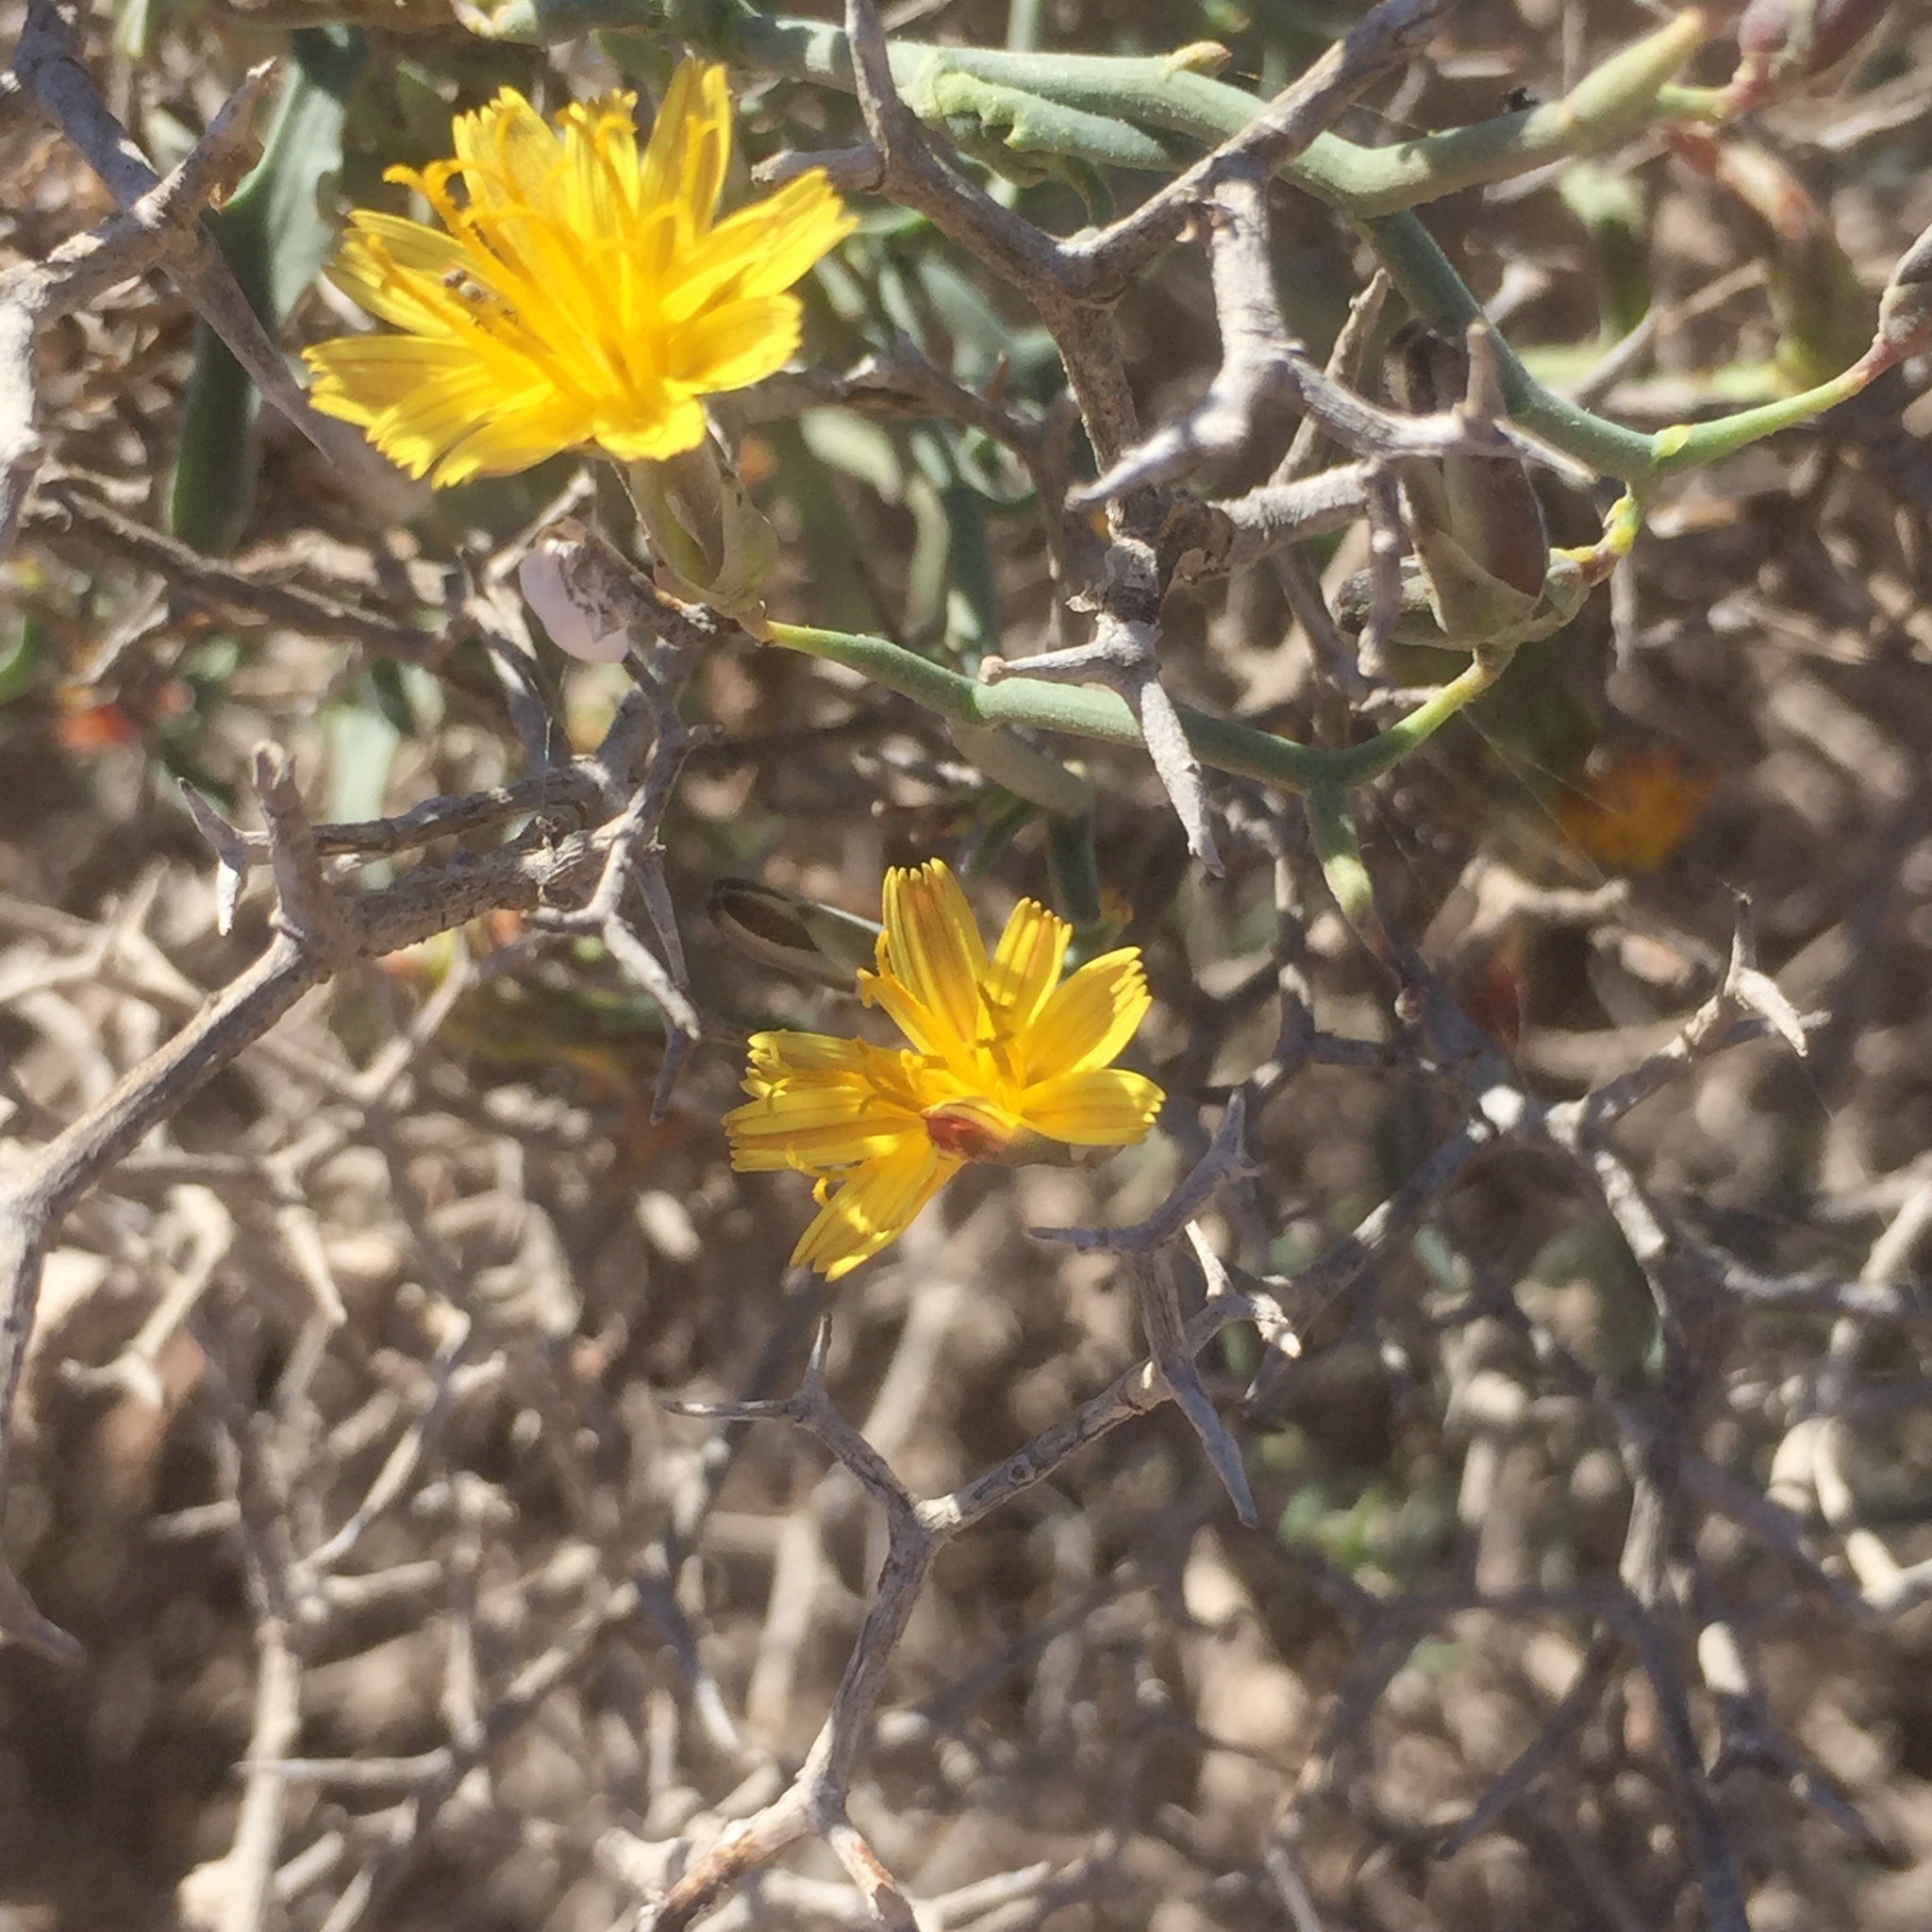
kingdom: Plantae
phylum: Tracheophyta
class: Magnoliopsida
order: Asterales
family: Asteraceae
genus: Launaea
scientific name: Launaea arborescens
